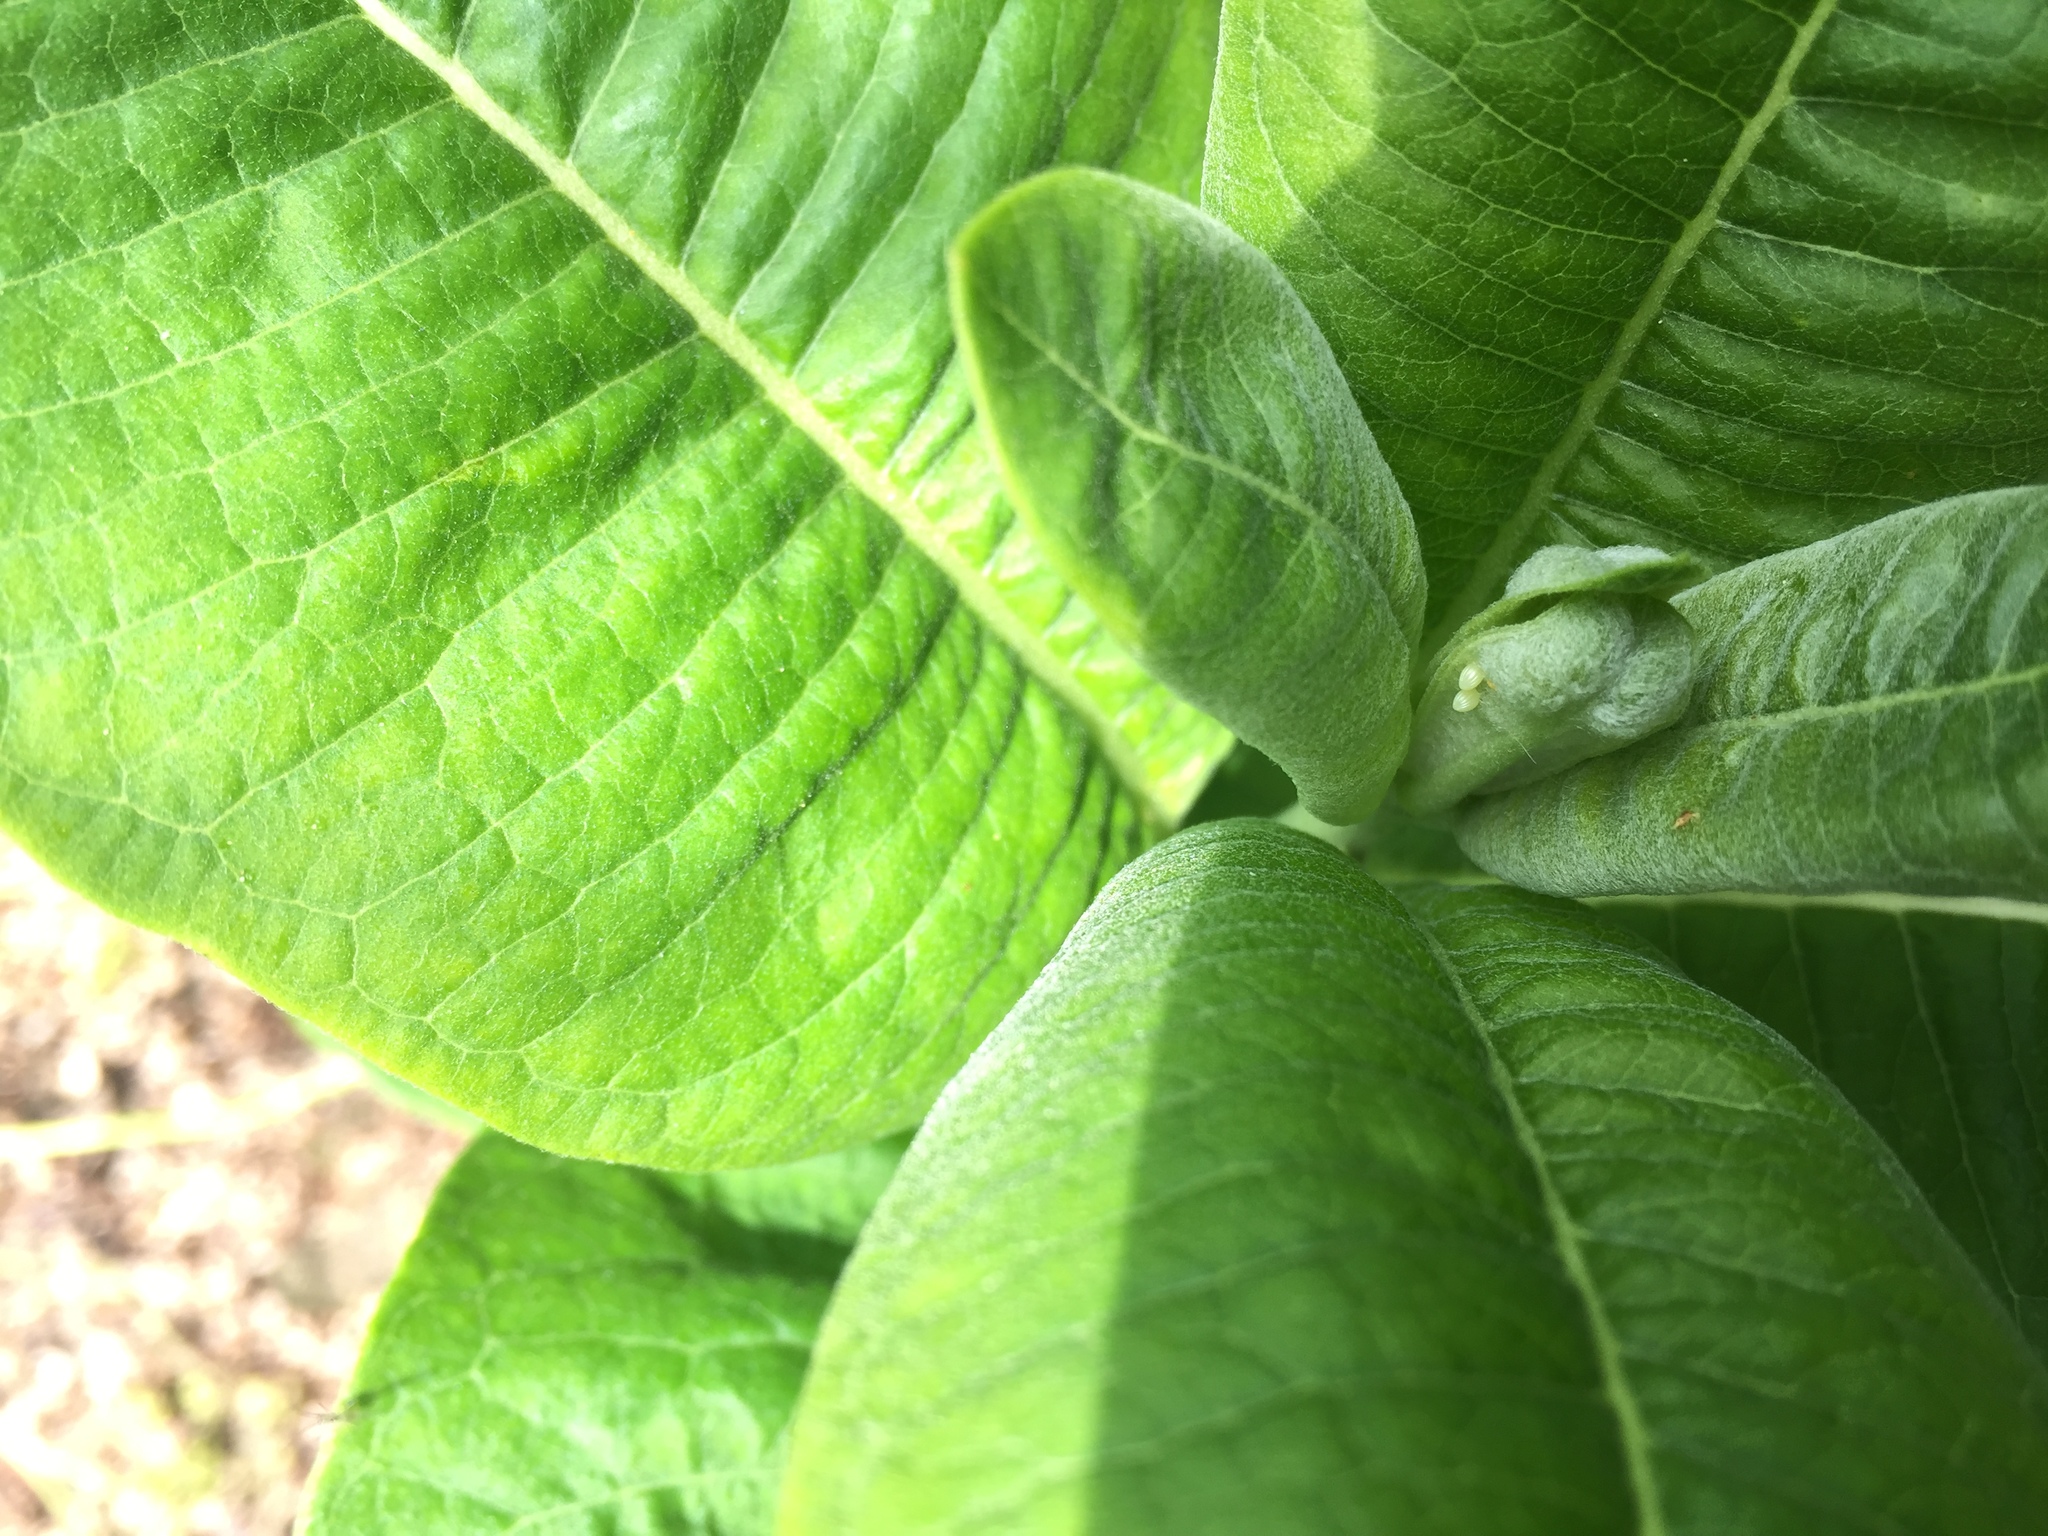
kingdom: Animalia
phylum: Arthropoda
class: Insecta
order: Lepidoptera
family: Nymphalidae
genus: Danaus
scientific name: Danaus plexippus
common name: Monarch
